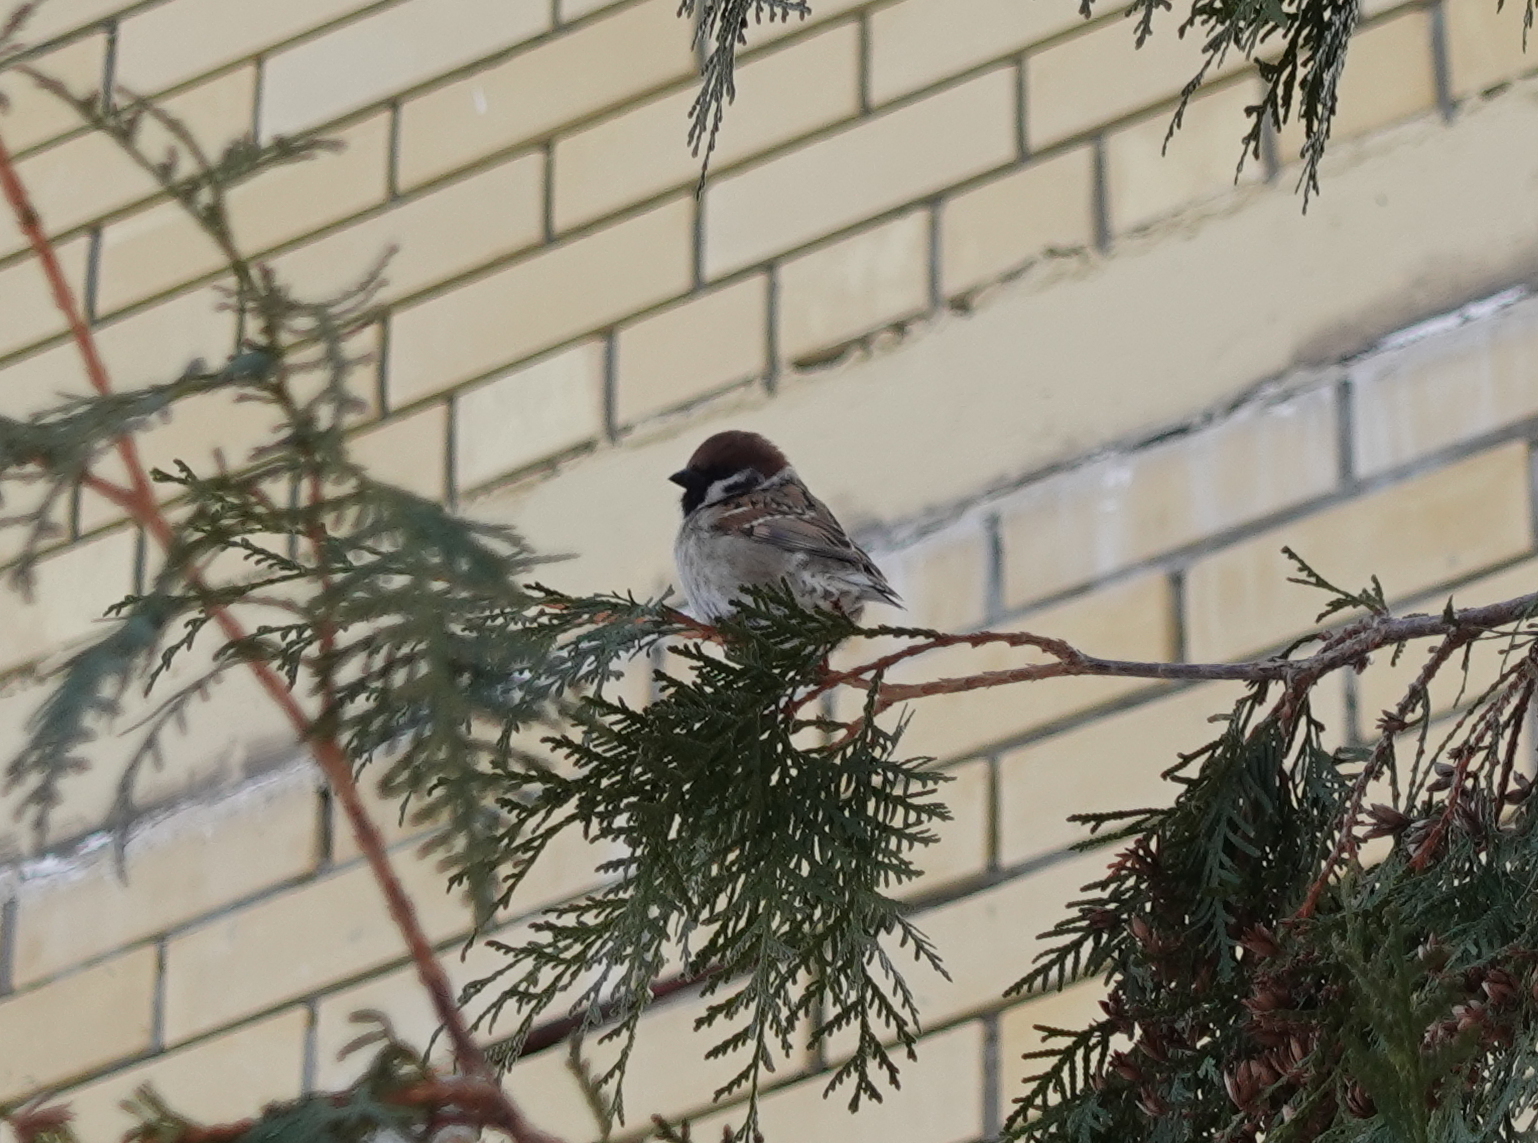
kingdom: Animalia
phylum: Chordata
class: Aves
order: Passeriformes
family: Passeridae
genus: Passer
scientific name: Passer montanus
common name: Eurasian tree sparrow
